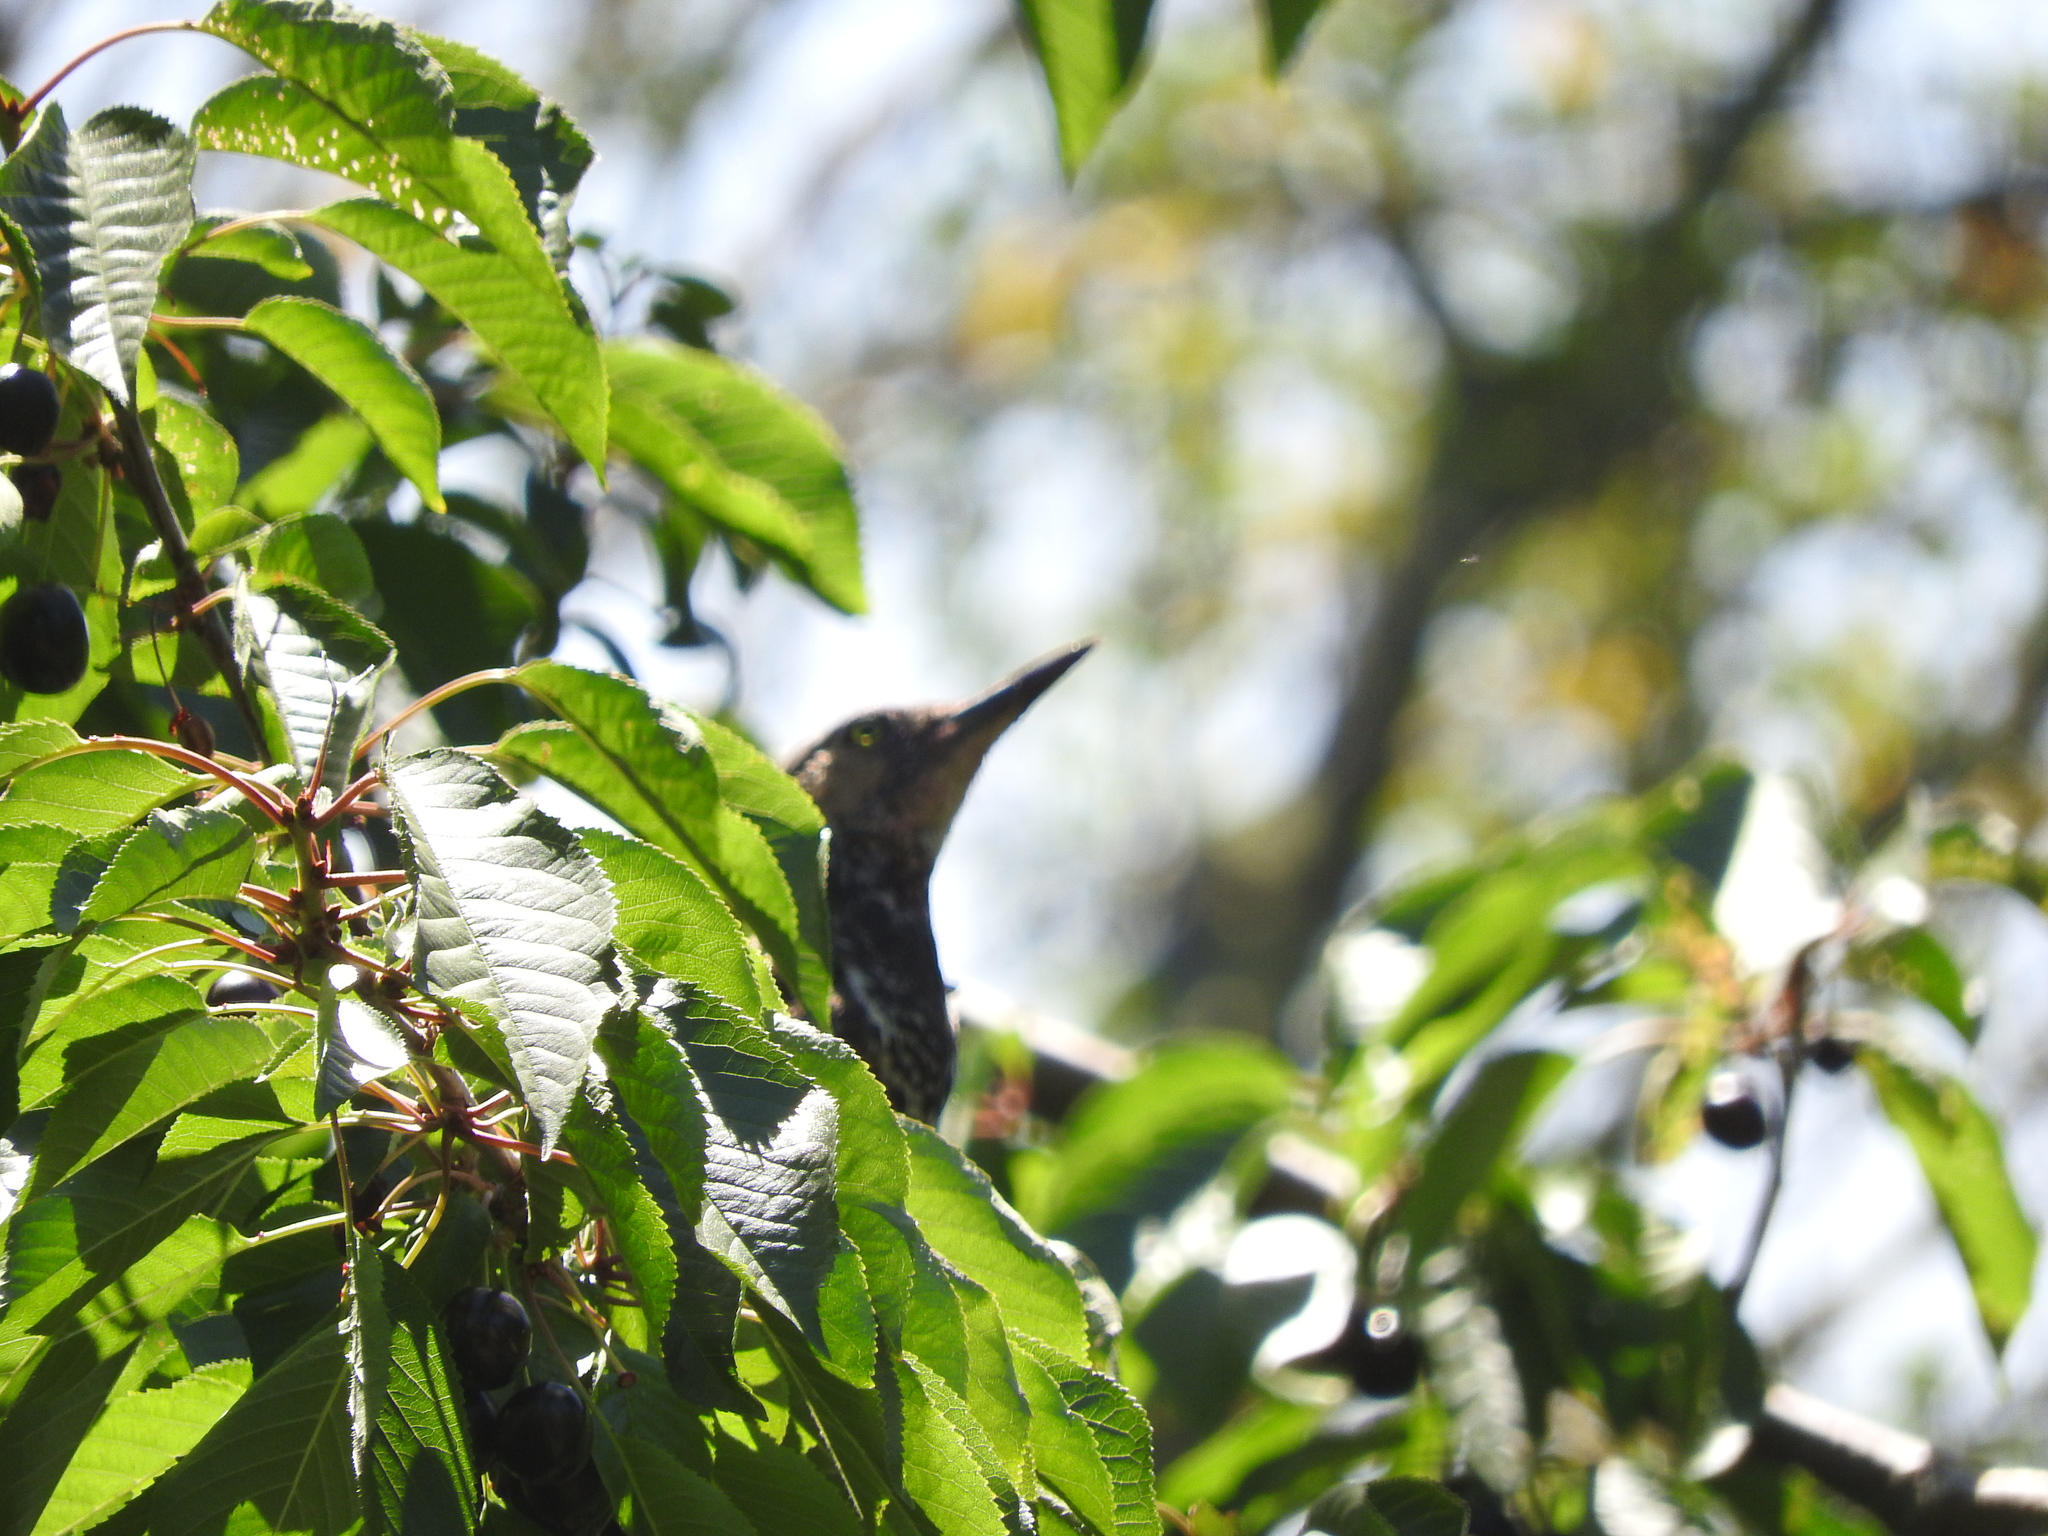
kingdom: Animalia
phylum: Chordata
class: Aves
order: Piciformes
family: Picidae
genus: Colaptes
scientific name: Colaptes pitius
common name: Chilean flicker
